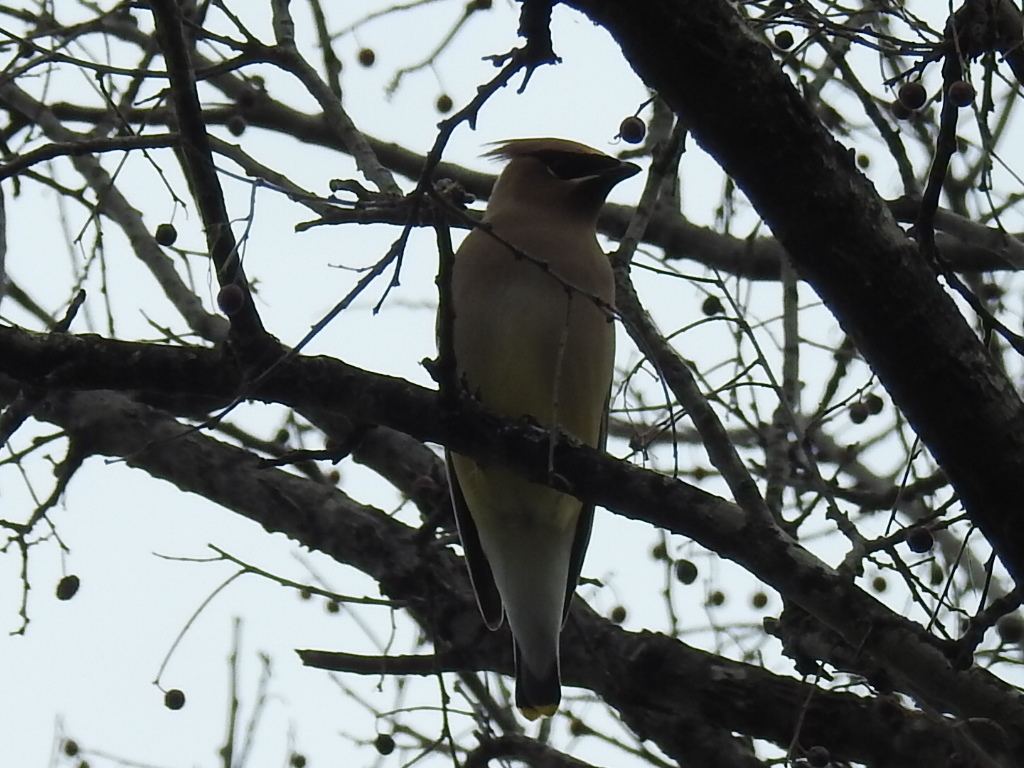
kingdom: Animalia
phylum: Chordata
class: Aves
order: Passeriformes
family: Bombycillidae
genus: Bombycilla
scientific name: Bombycilla cedrorum
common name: Cedar waxwing
